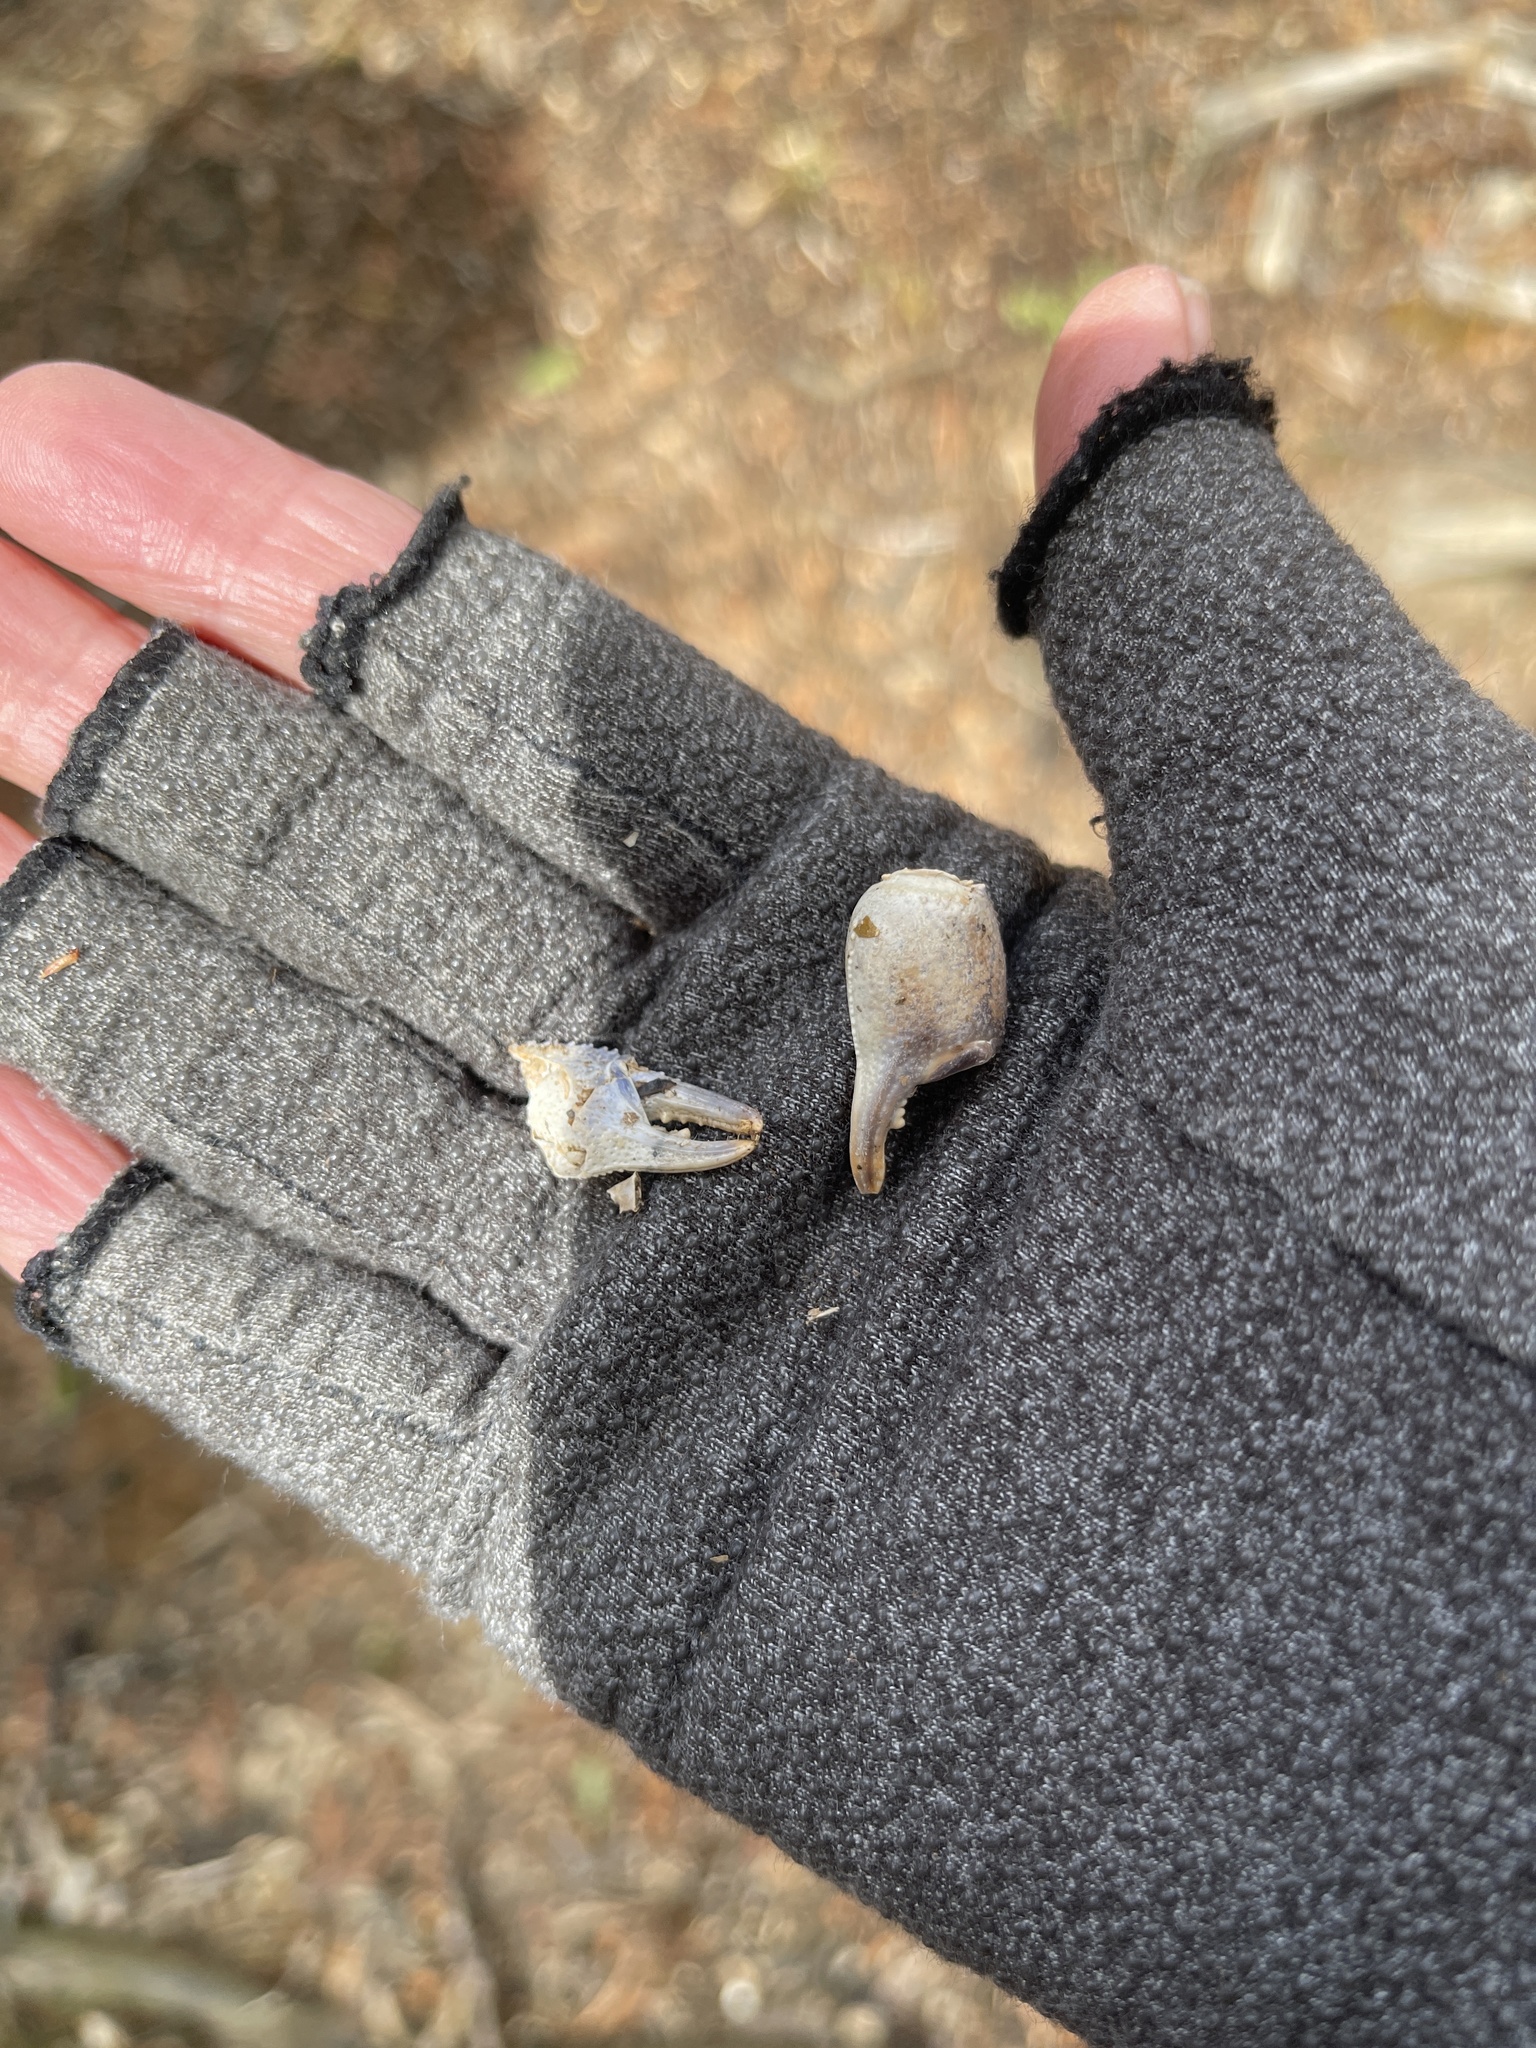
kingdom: Animalia
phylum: Arthropoda
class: Malacostraca
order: Decapoda
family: Parastacidae
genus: Engaeus
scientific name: Engaeus disjuncticus
